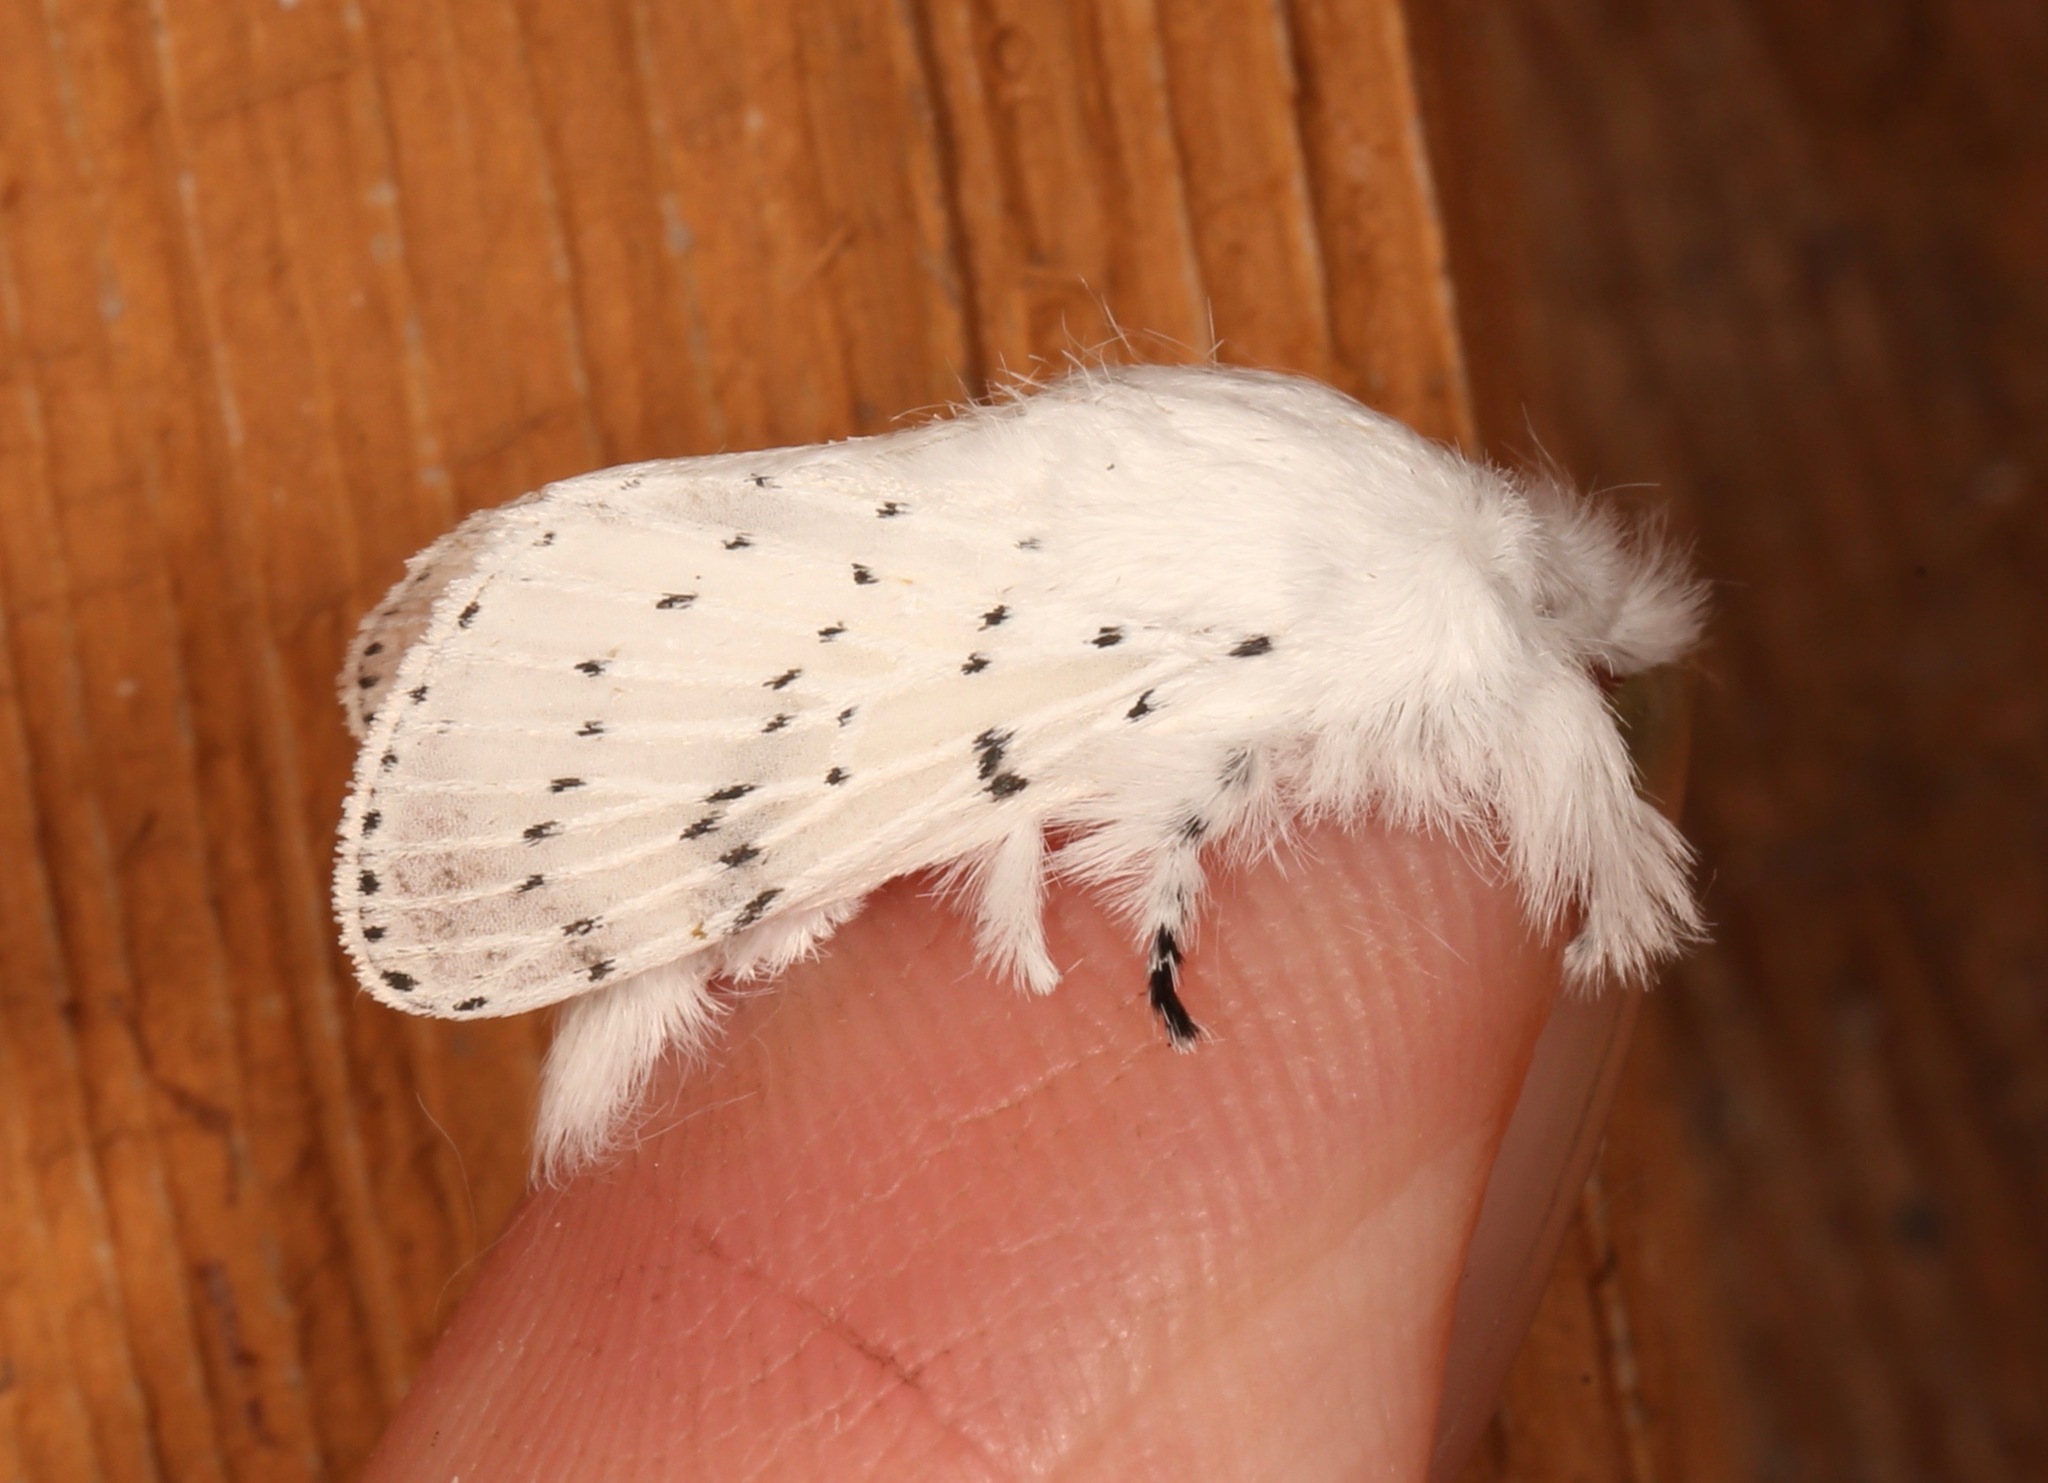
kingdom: Animalia
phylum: Arthropoda
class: Insecta
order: Lepidoptera
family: Lasiocampidae
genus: Artace
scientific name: Artace cribrarius
